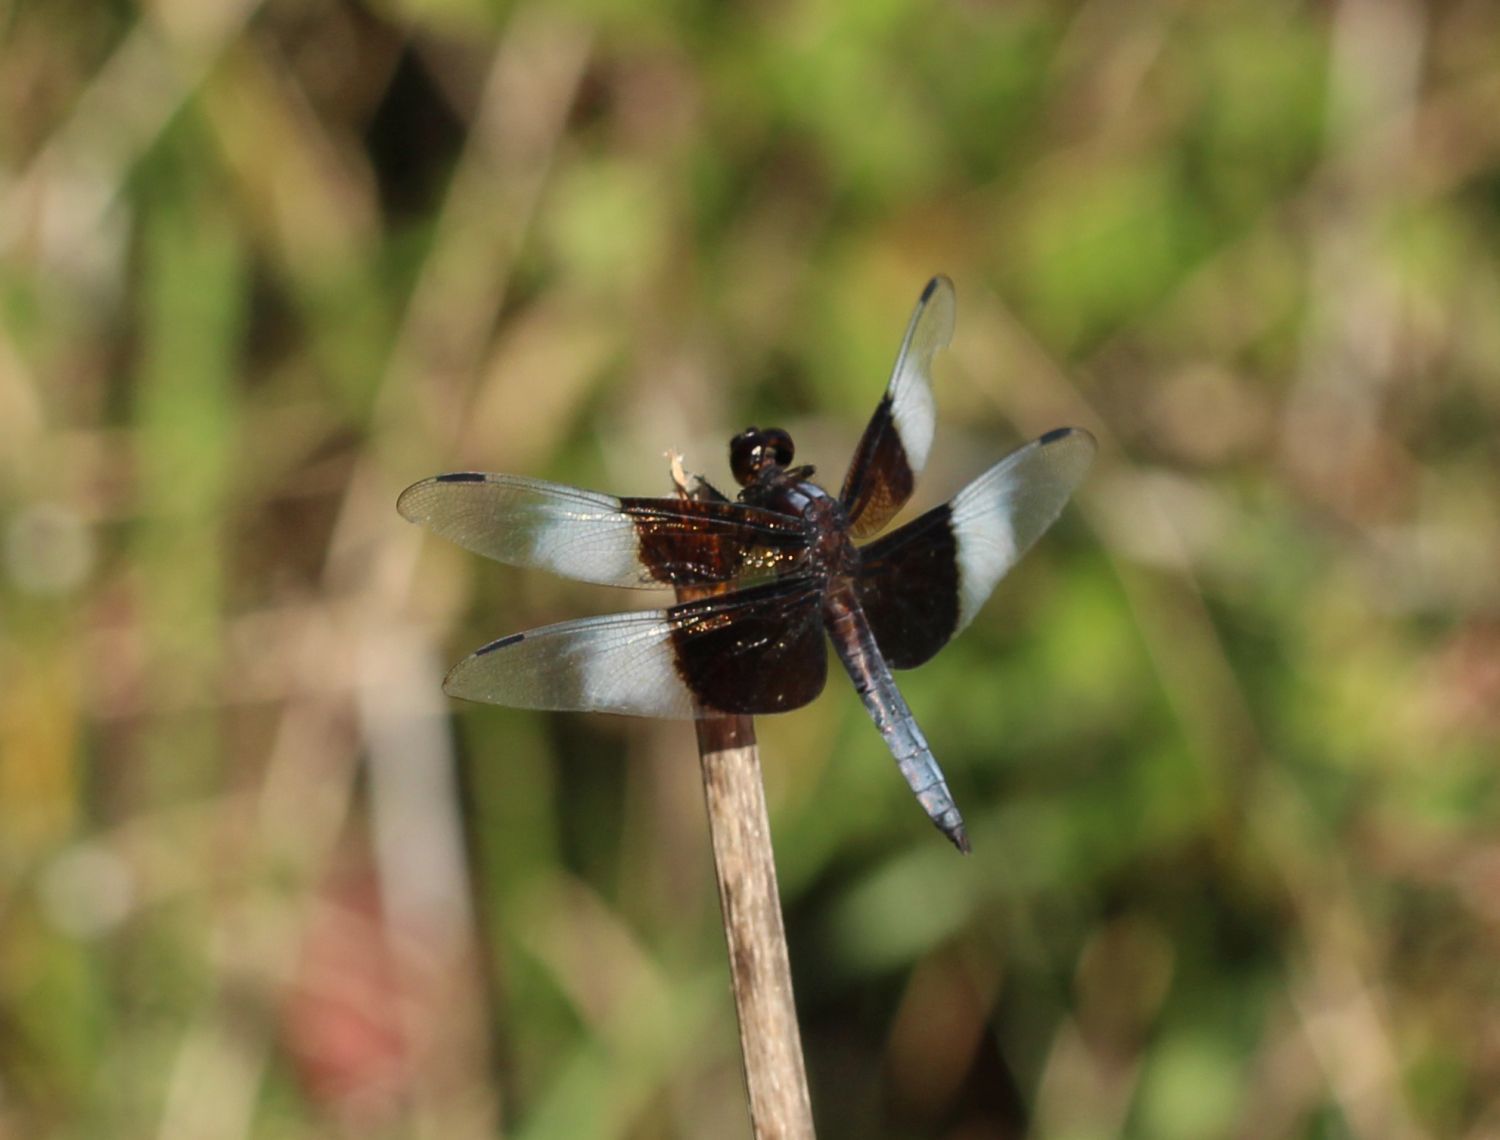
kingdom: Animalia
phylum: Arthropoda
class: Insecta
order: Odonata
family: Libellulidae
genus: Libellula
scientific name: Libellula luctuosa
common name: Widow skimmer
